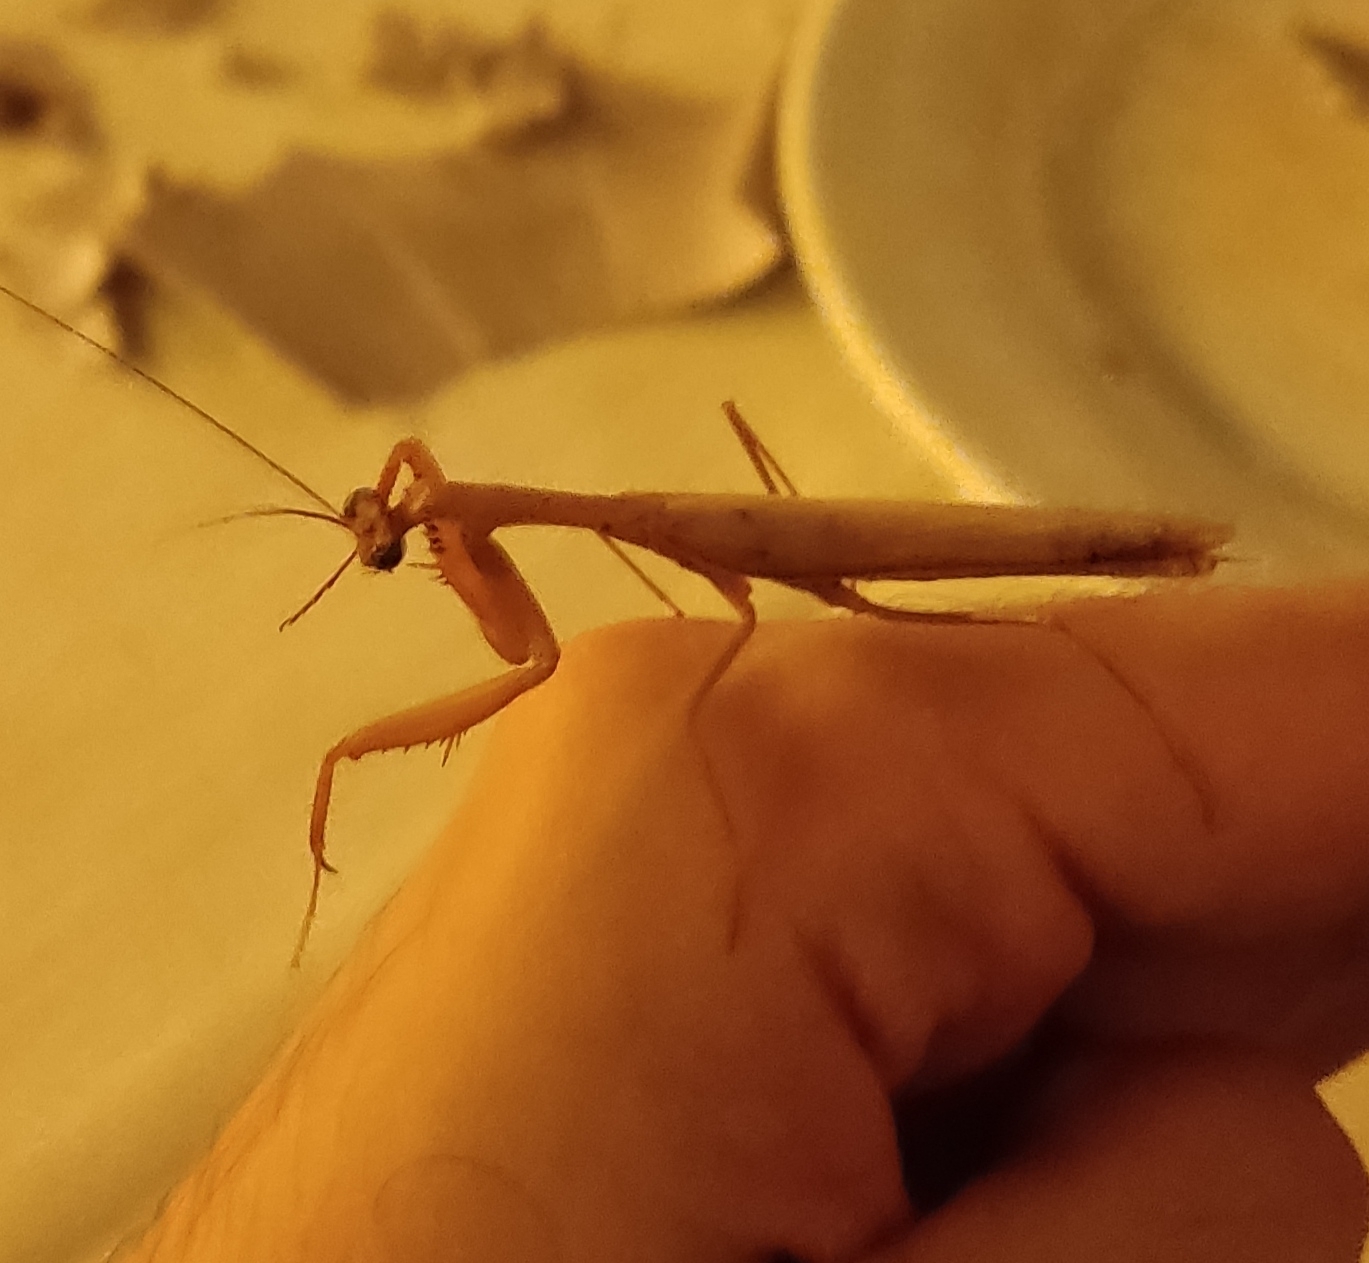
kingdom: Animalia
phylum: Arthropoda
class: Insecta
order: Mantodea
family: Mantidae
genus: Mantis
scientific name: Mantis religiosa
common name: Praying mantis
